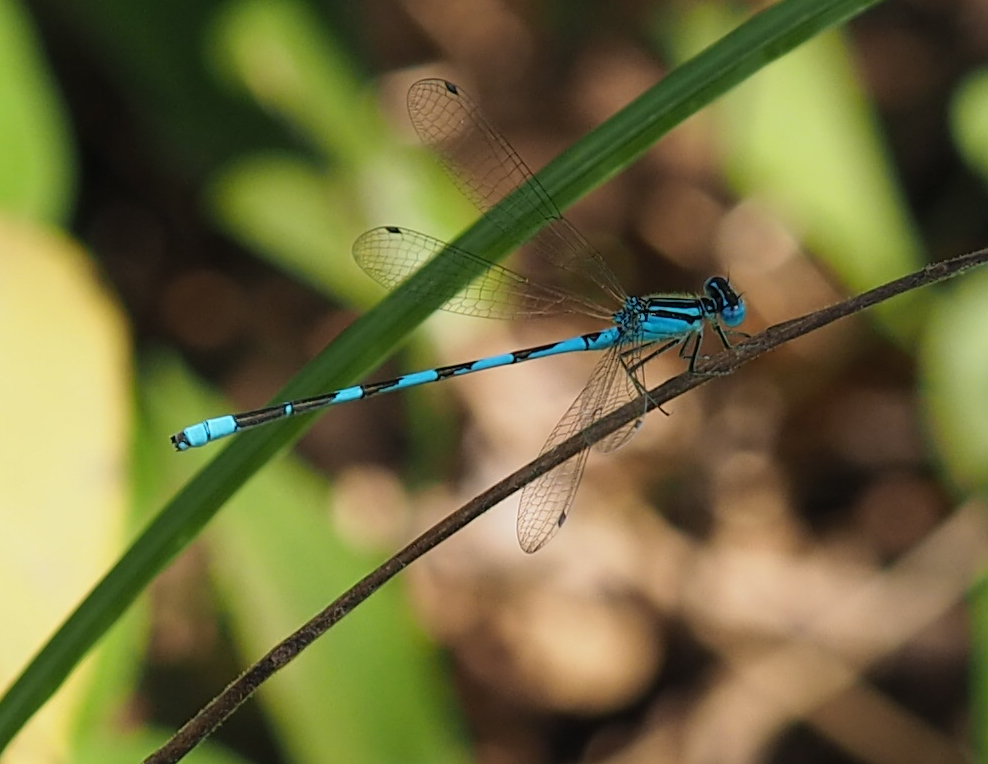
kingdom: Animalia
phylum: Arthropoda
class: Insecta
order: Odonata
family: Coenagrionidae
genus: Enallagma
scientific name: Enallagma durum
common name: Big bluet
